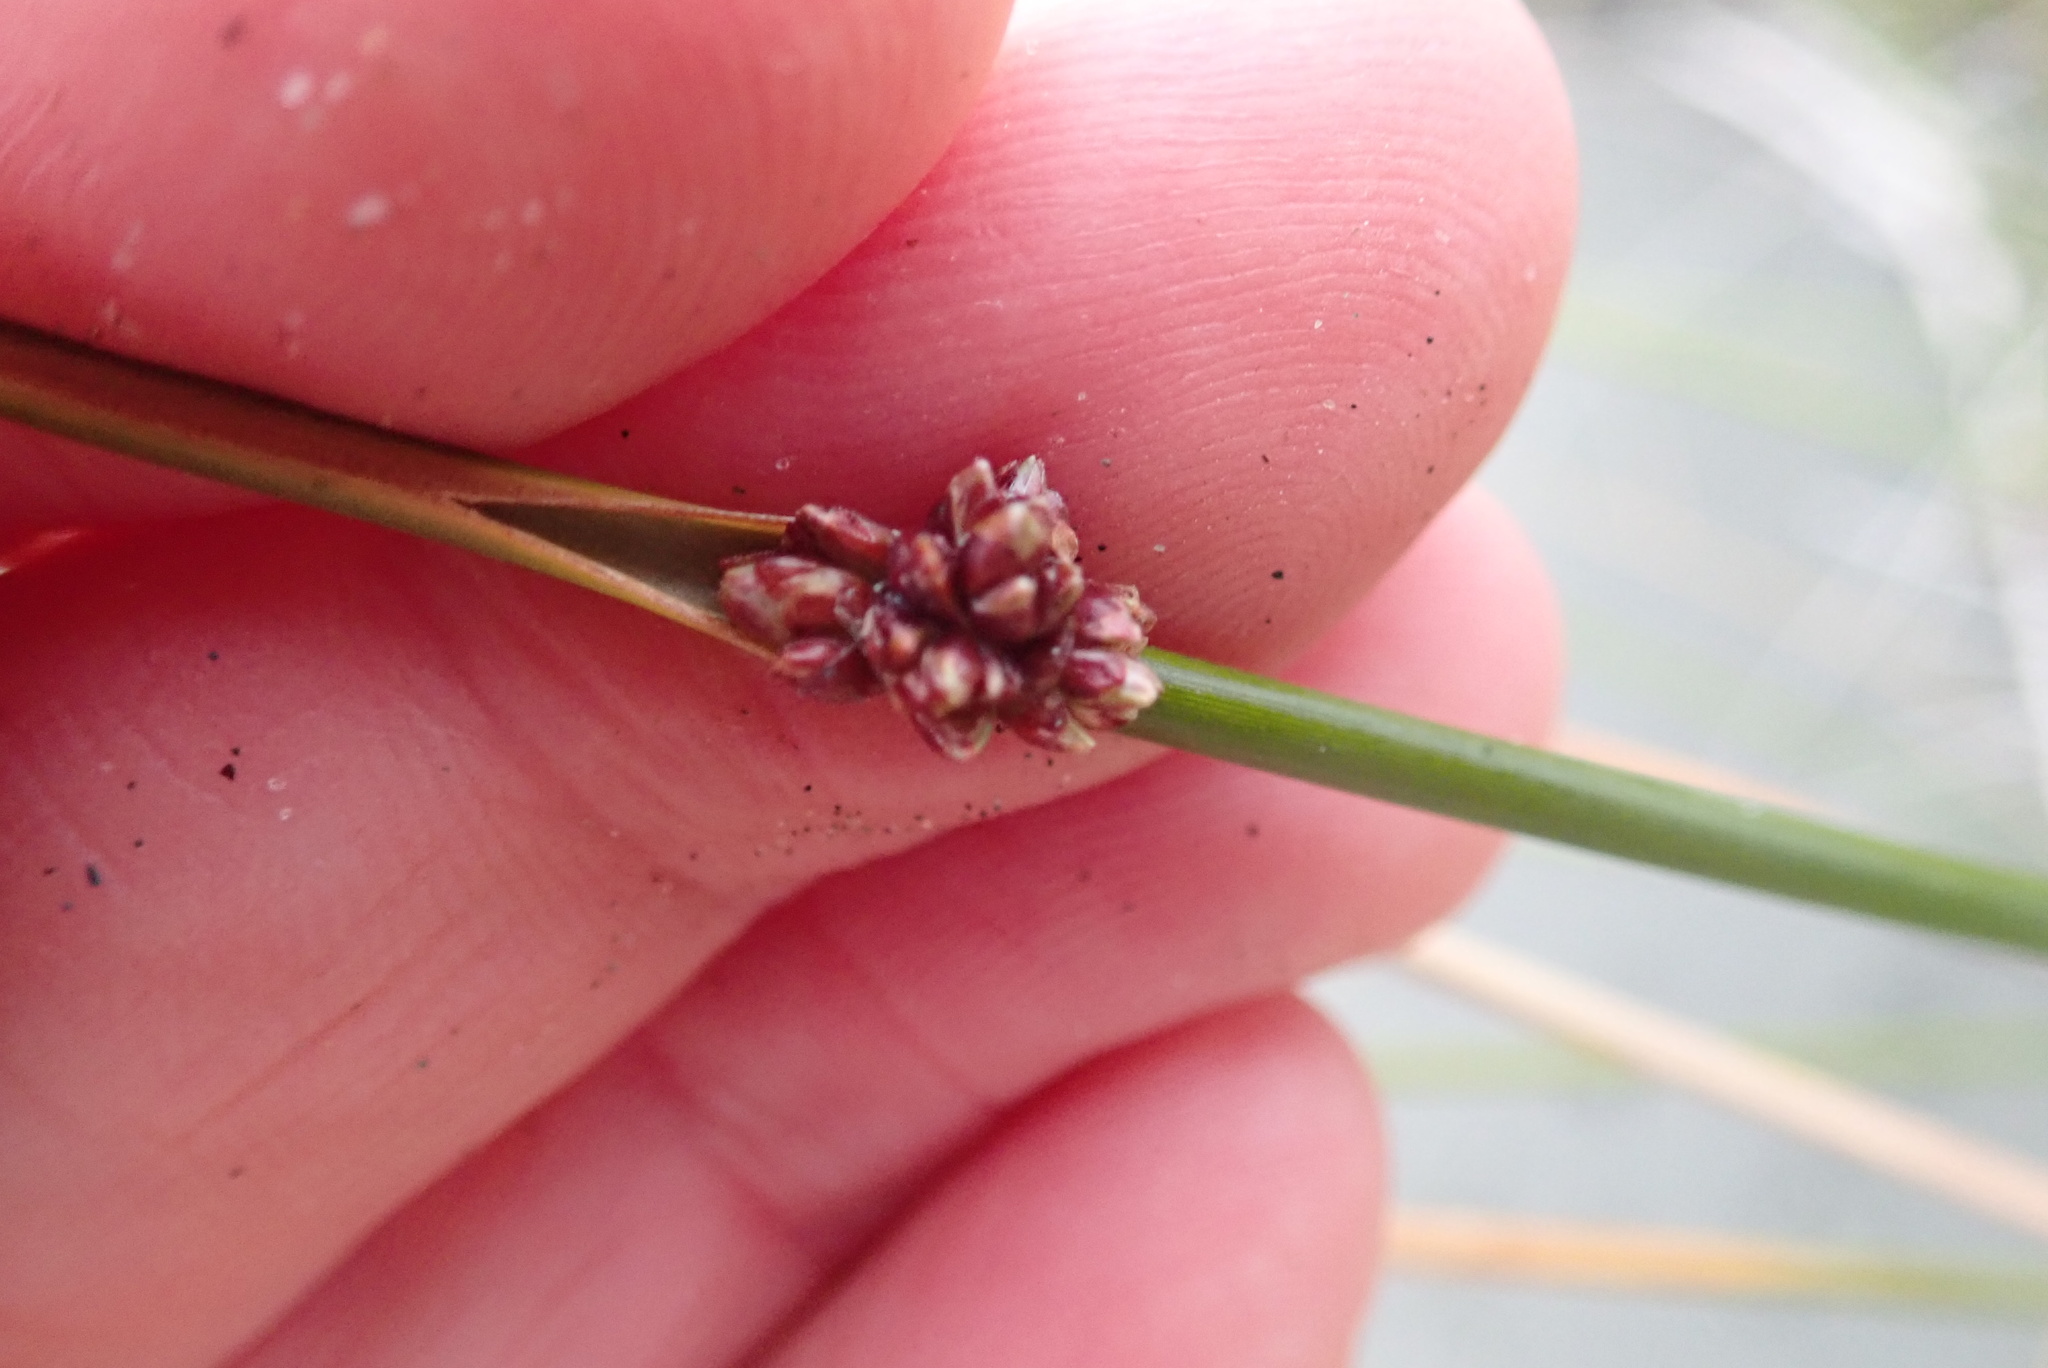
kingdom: Plantae
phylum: Tracheophyta
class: Liliopsida
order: Poales
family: Cyperaceae
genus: Ficinia
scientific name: Ficinia nodosa
